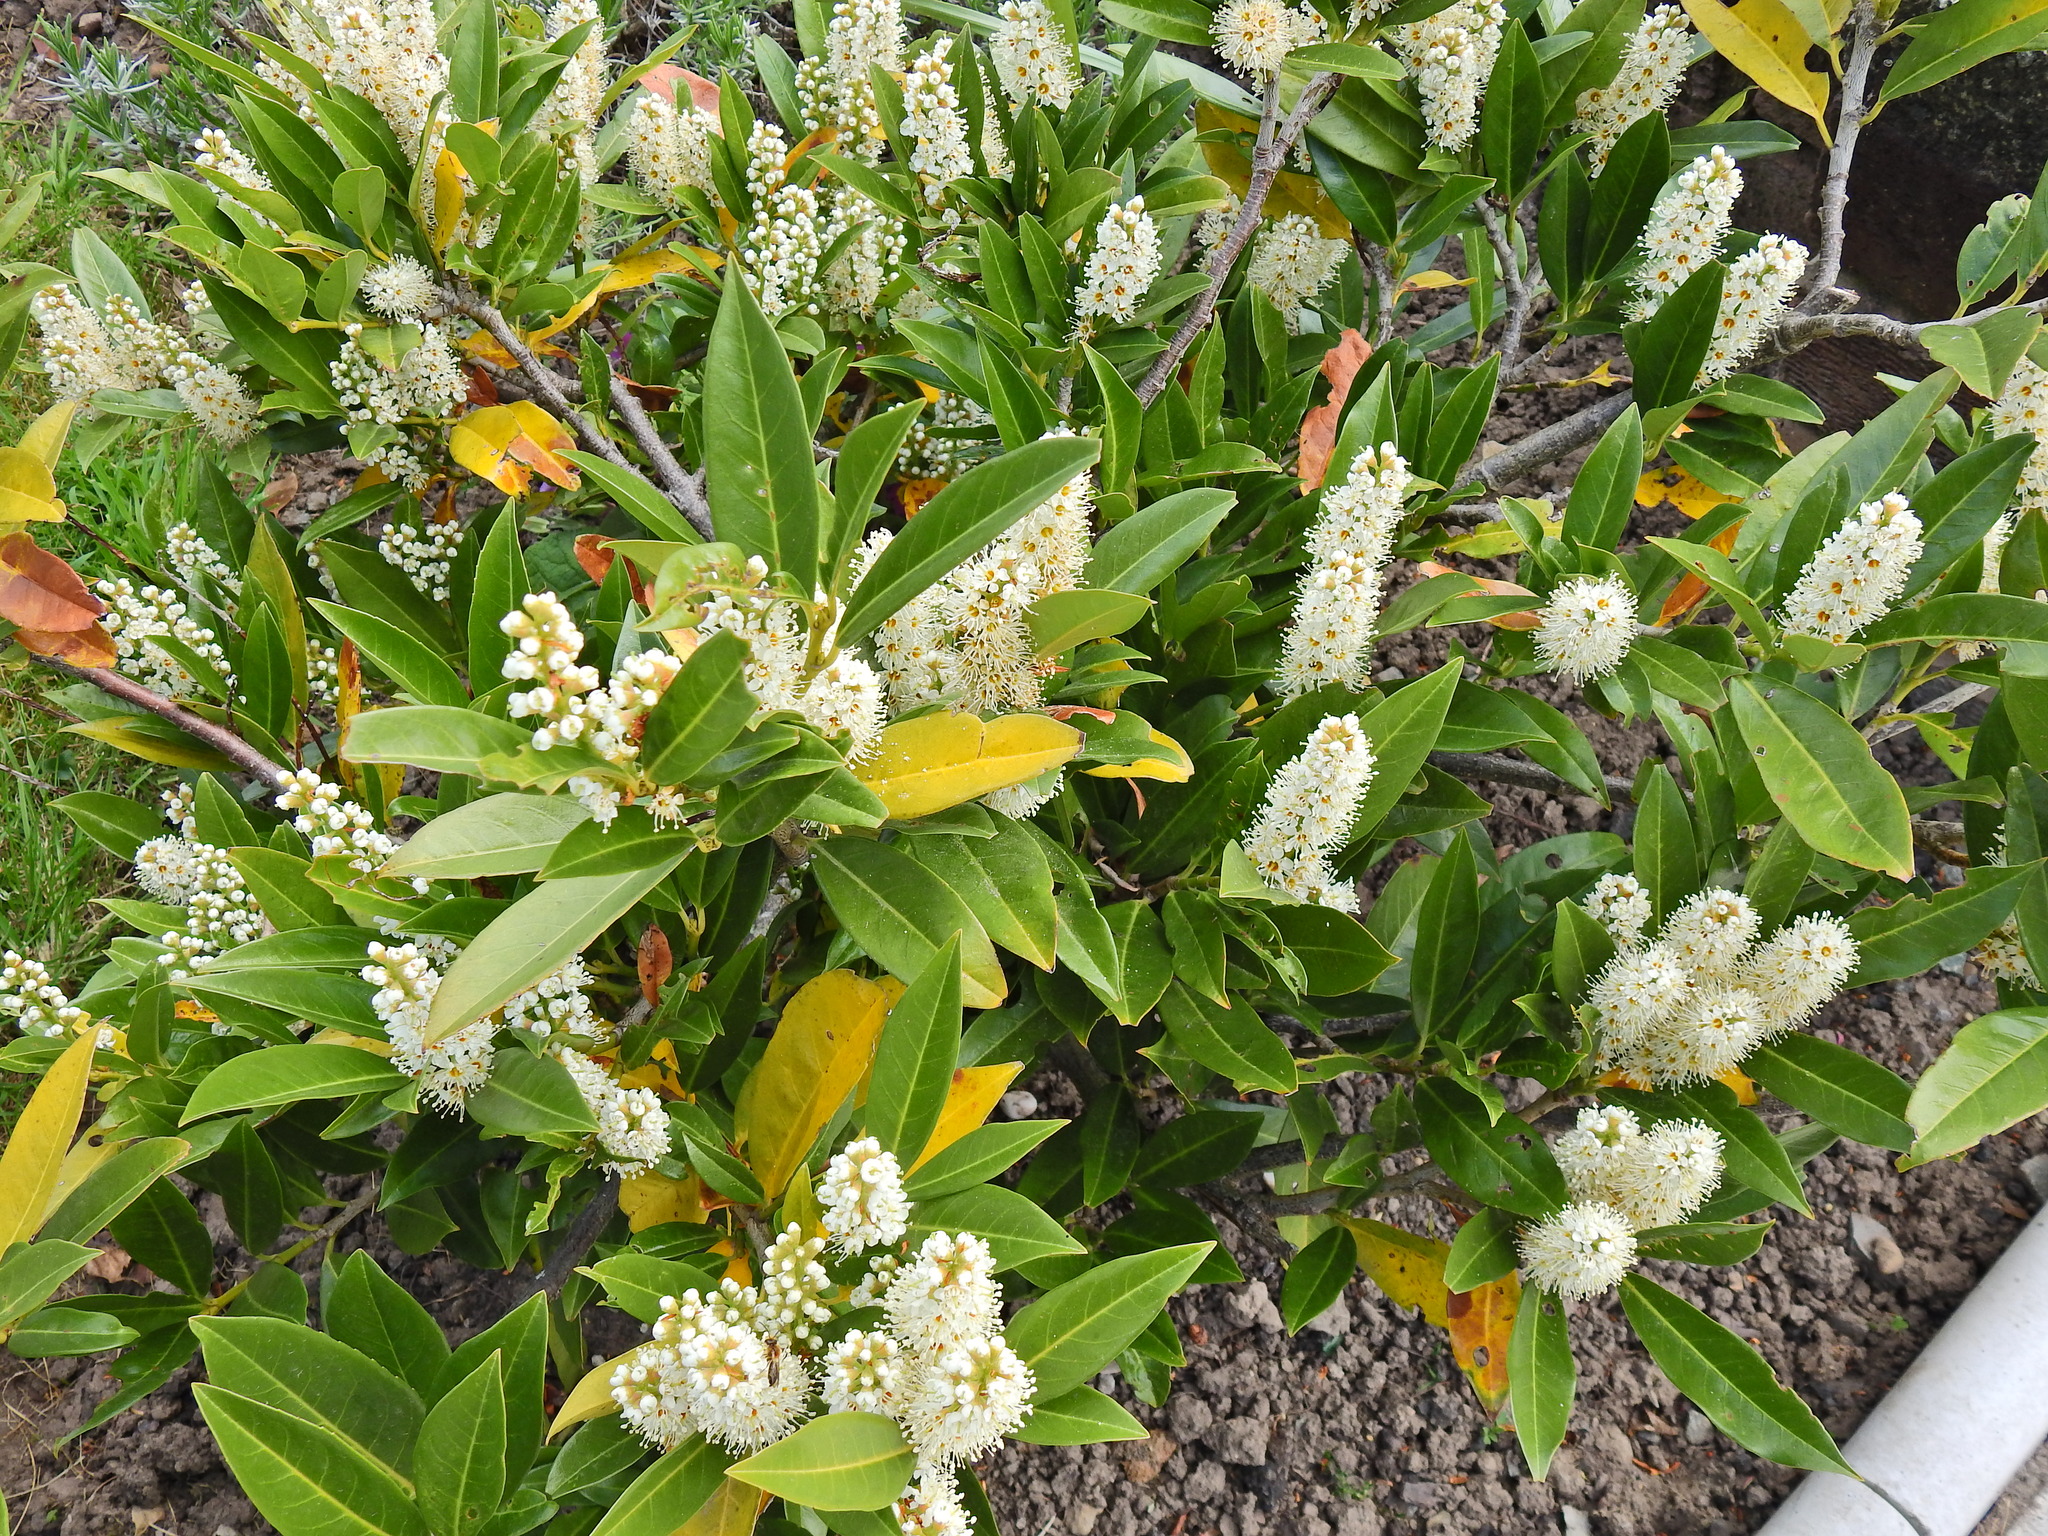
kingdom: Plantae
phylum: Tracheophyta
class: Magnoliopsida
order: Rosales
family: Rosaceae
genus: Prunus
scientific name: Prunus laurocerasus
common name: Cherry laurel
